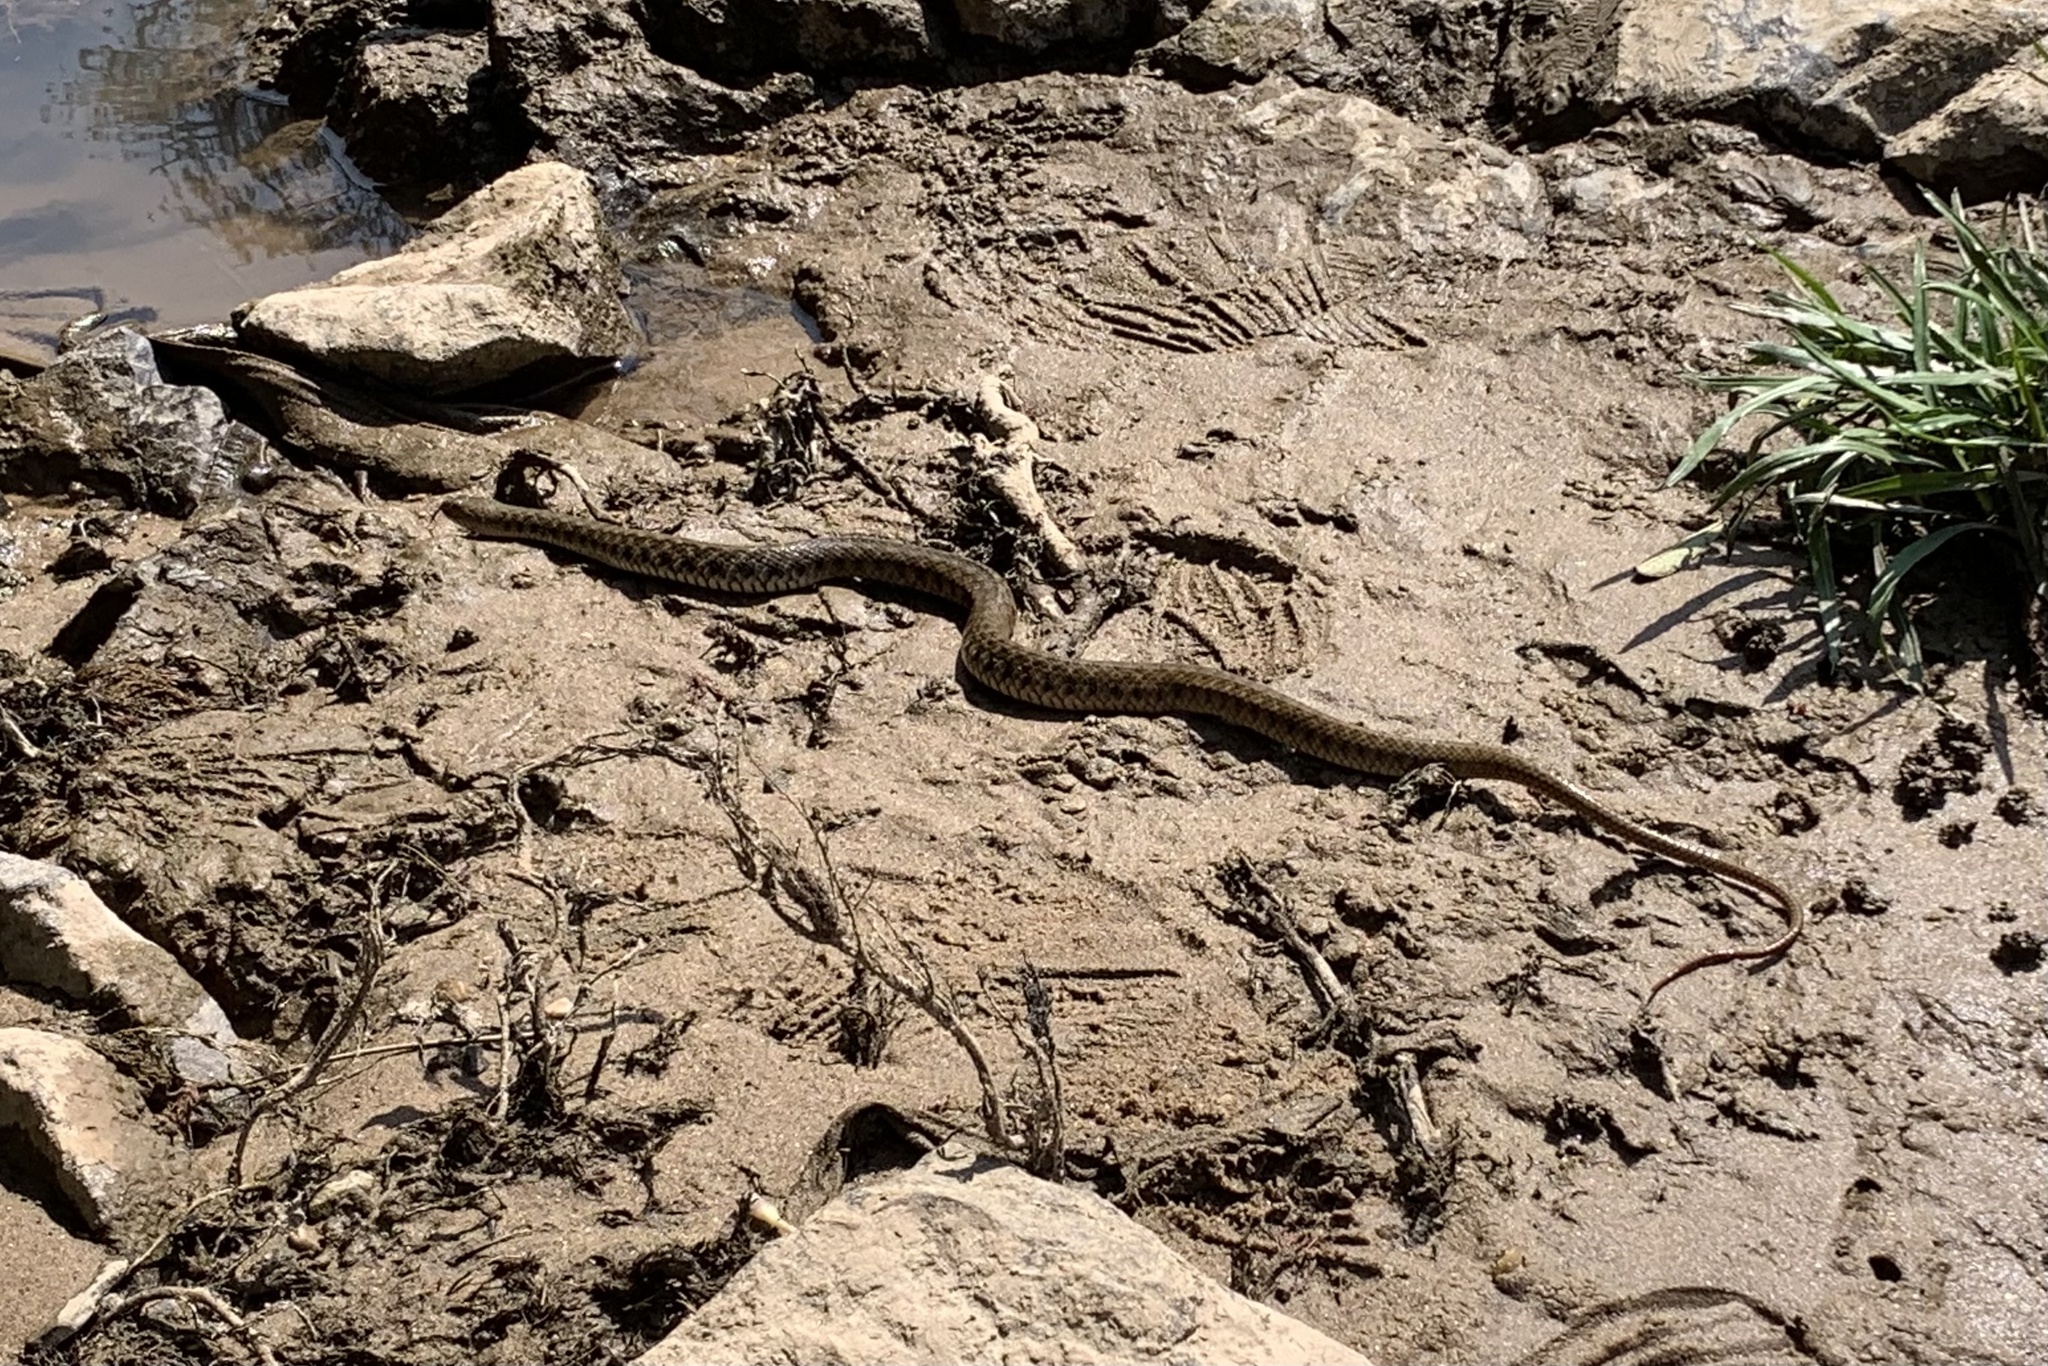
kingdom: Animalia
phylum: Chordata
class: Squamata
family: Colubridae
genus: Fowlea
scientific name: Fowlea piscator
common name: Asiatic water snake
